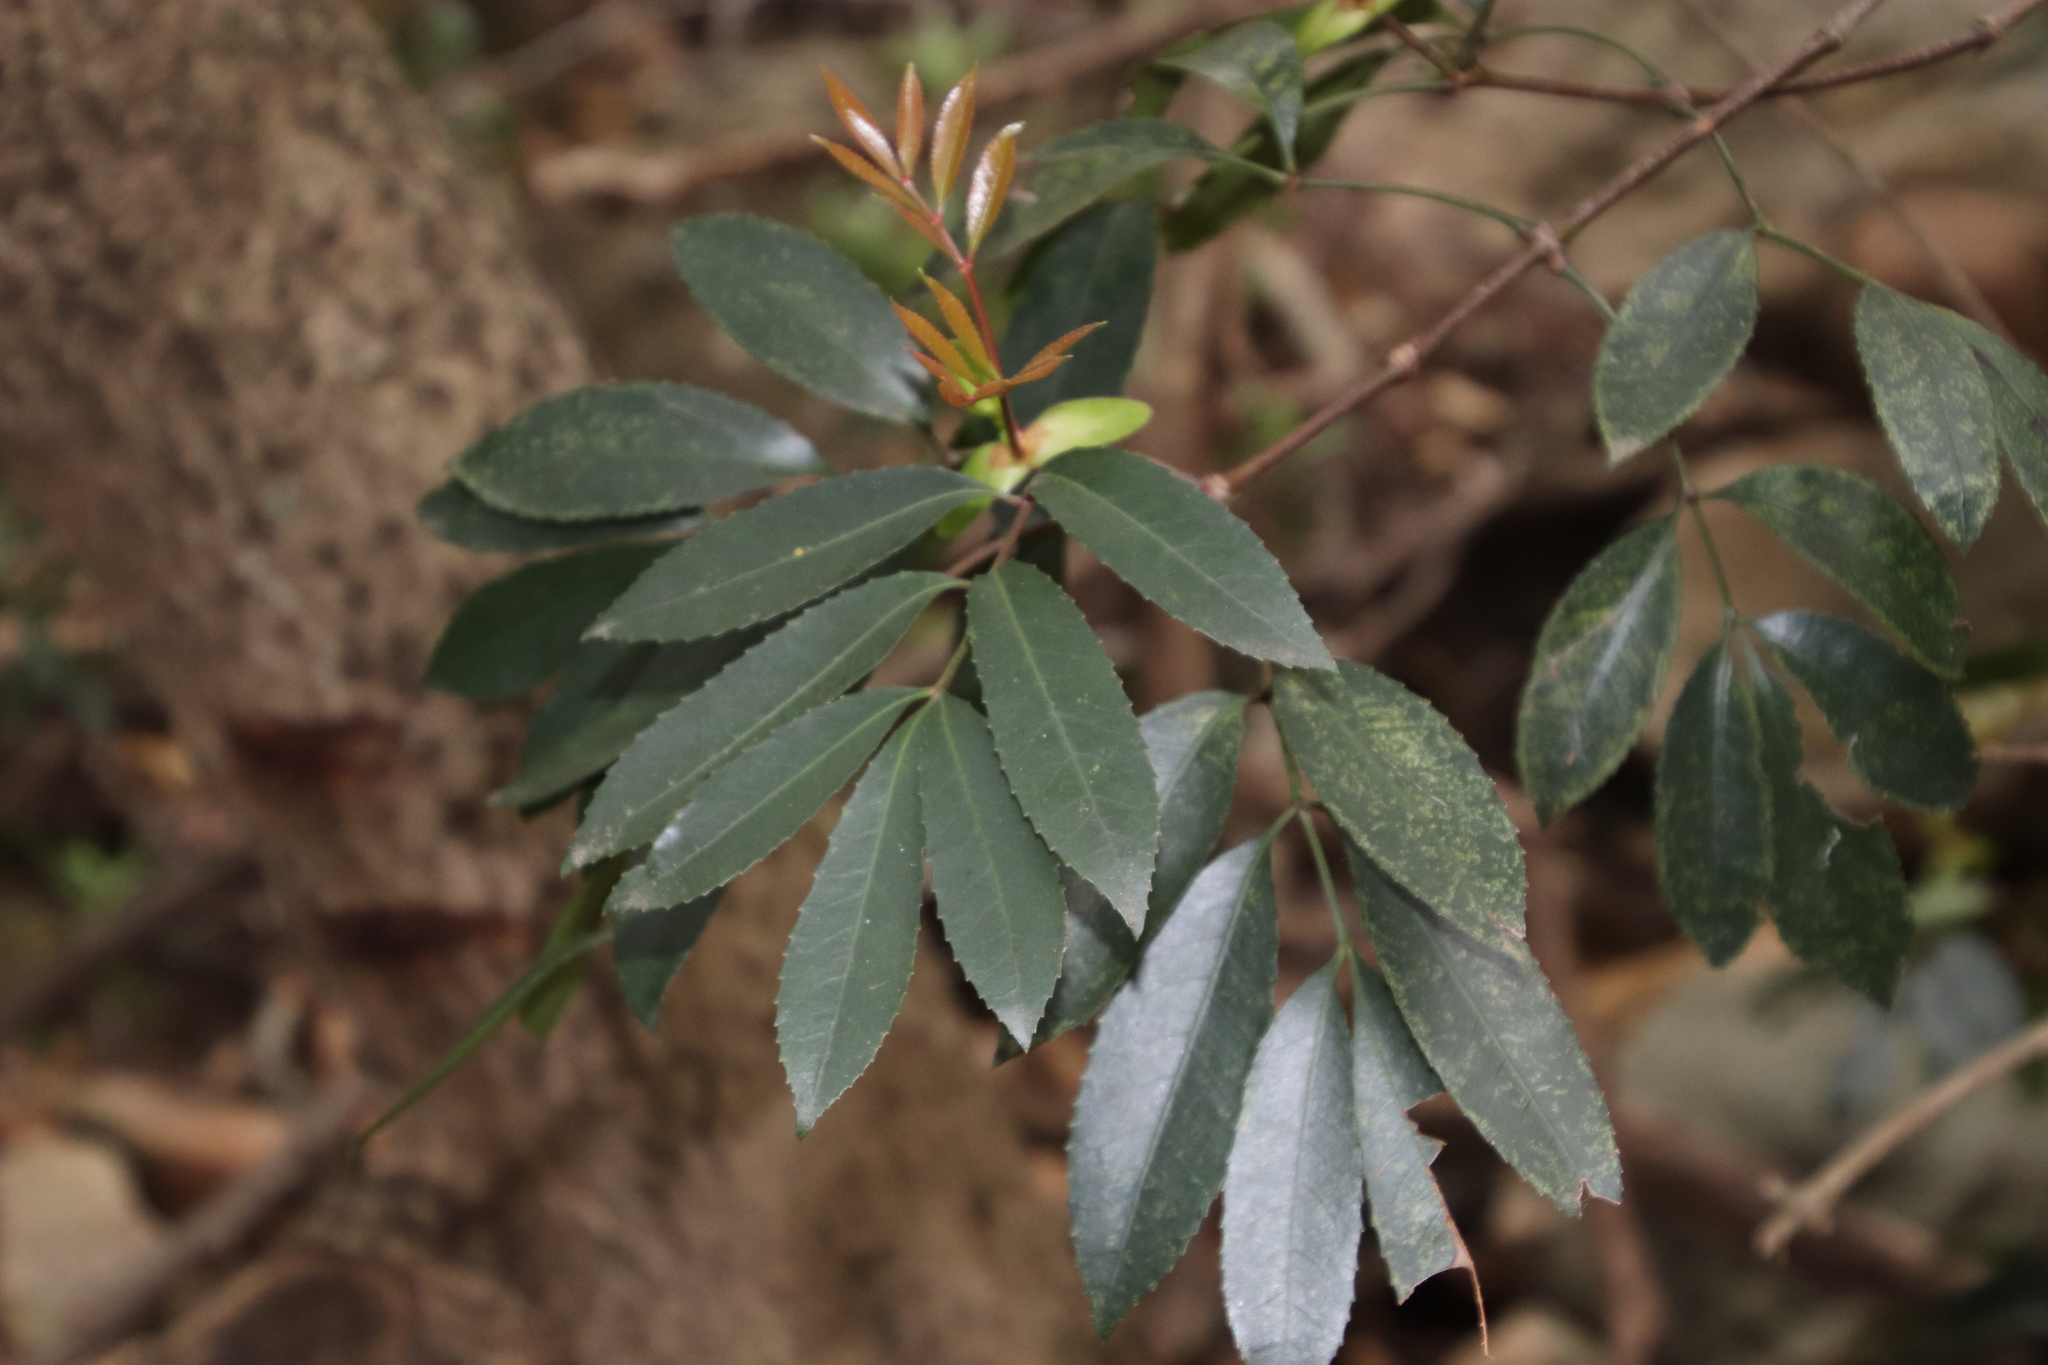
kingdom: Plantae
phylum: Tracheophyta
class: Magnoliopsida
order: Oxalidales
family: Cunoniaceae
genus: Cunonia
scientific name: Cunonia capensis
